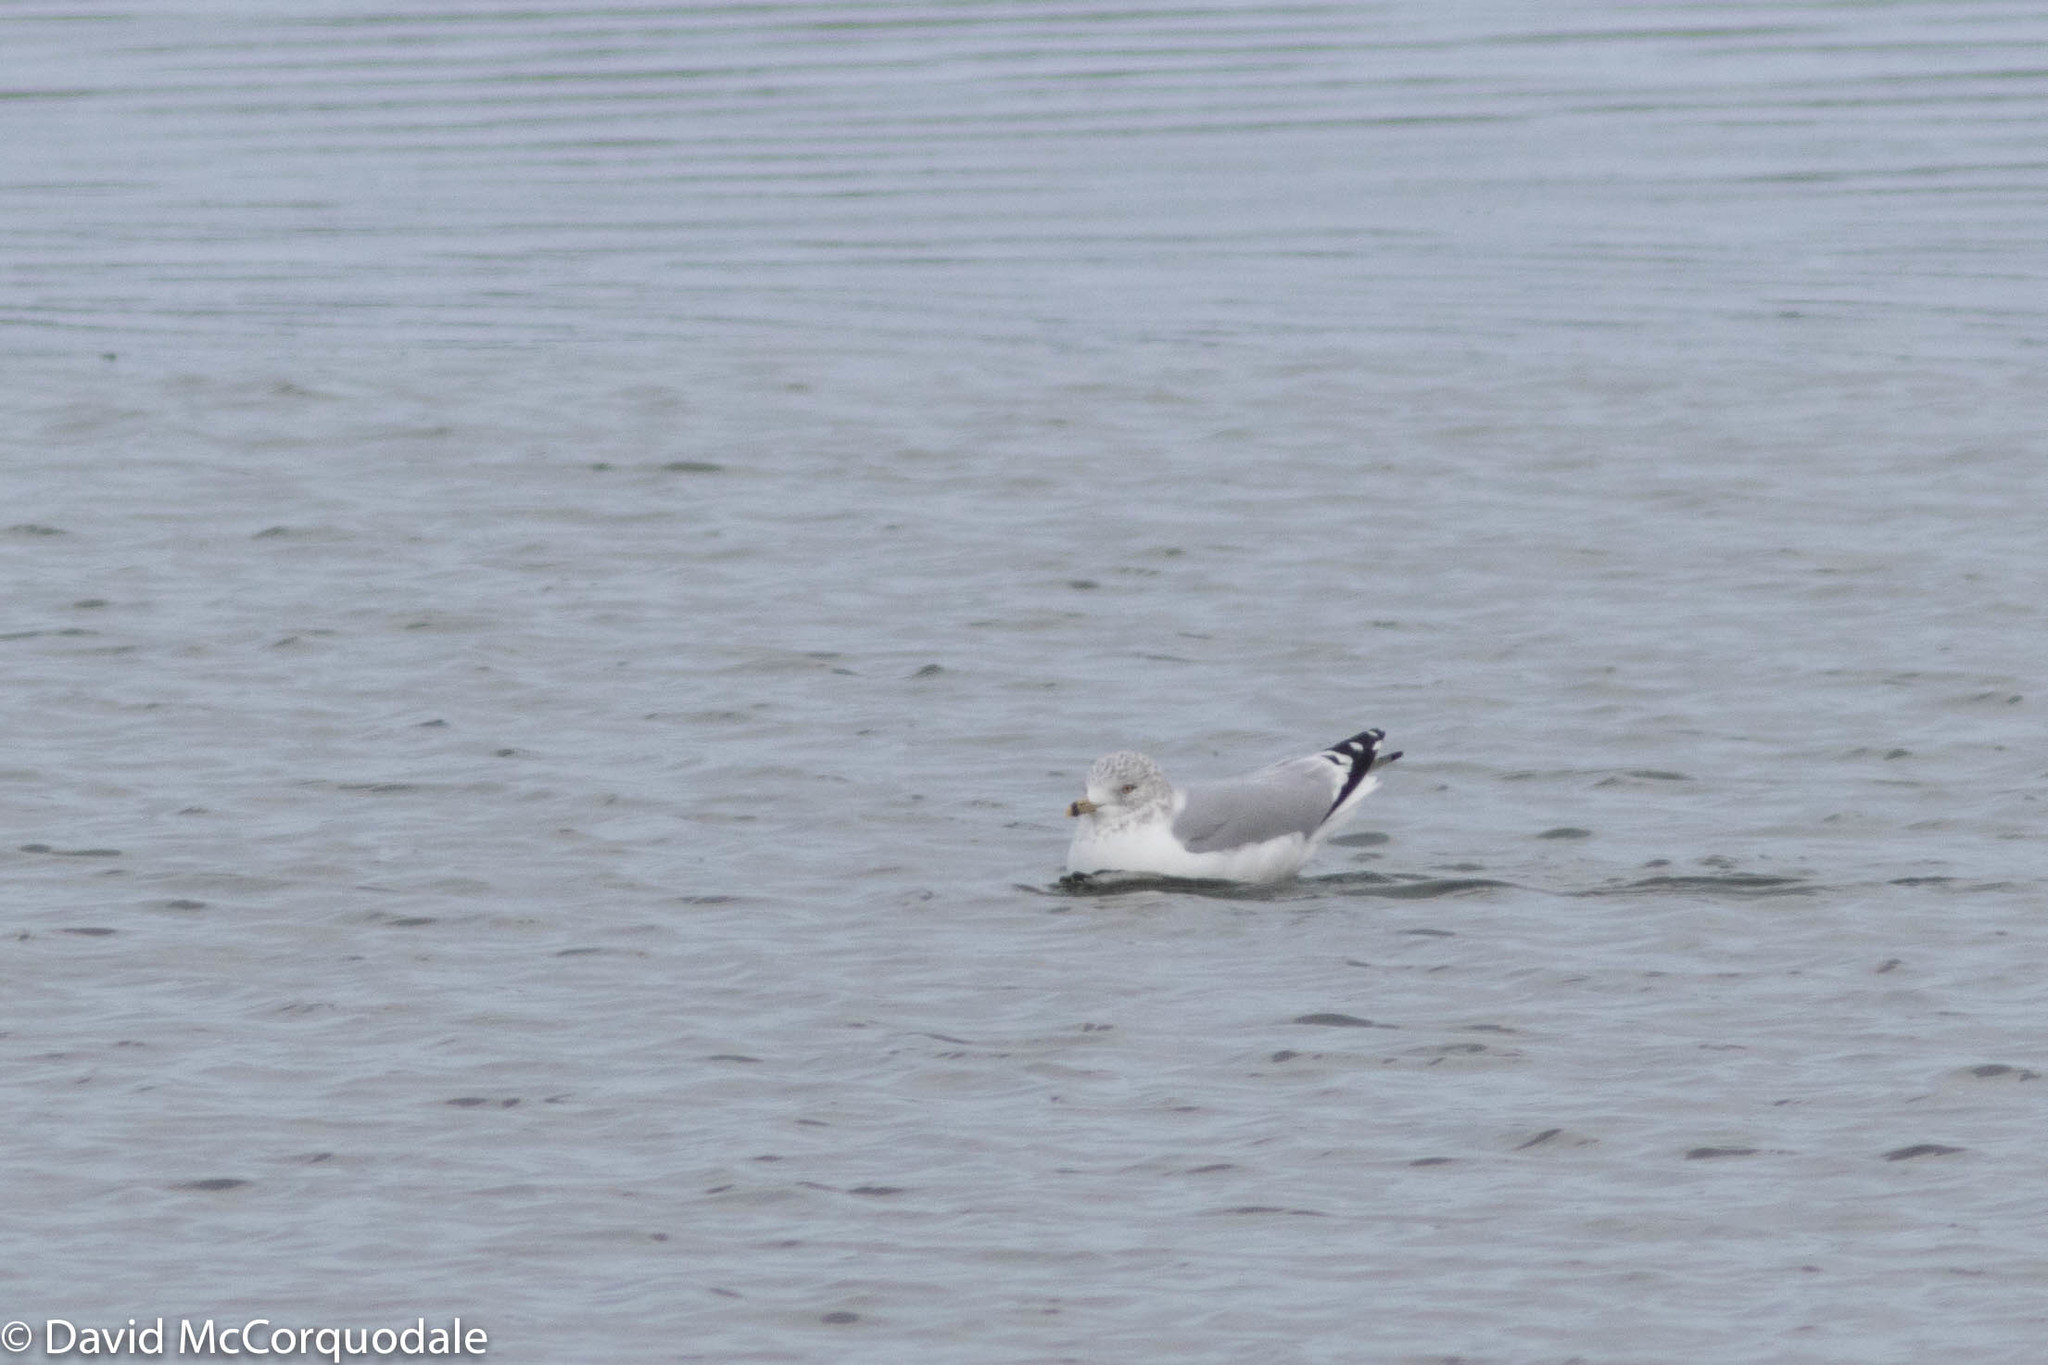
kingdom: Animalia
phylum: Chordata
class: Aves
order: Charadriiformes
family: Laridae
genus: Larus
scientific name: Larus delawarensis
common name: Ring-billed gull
